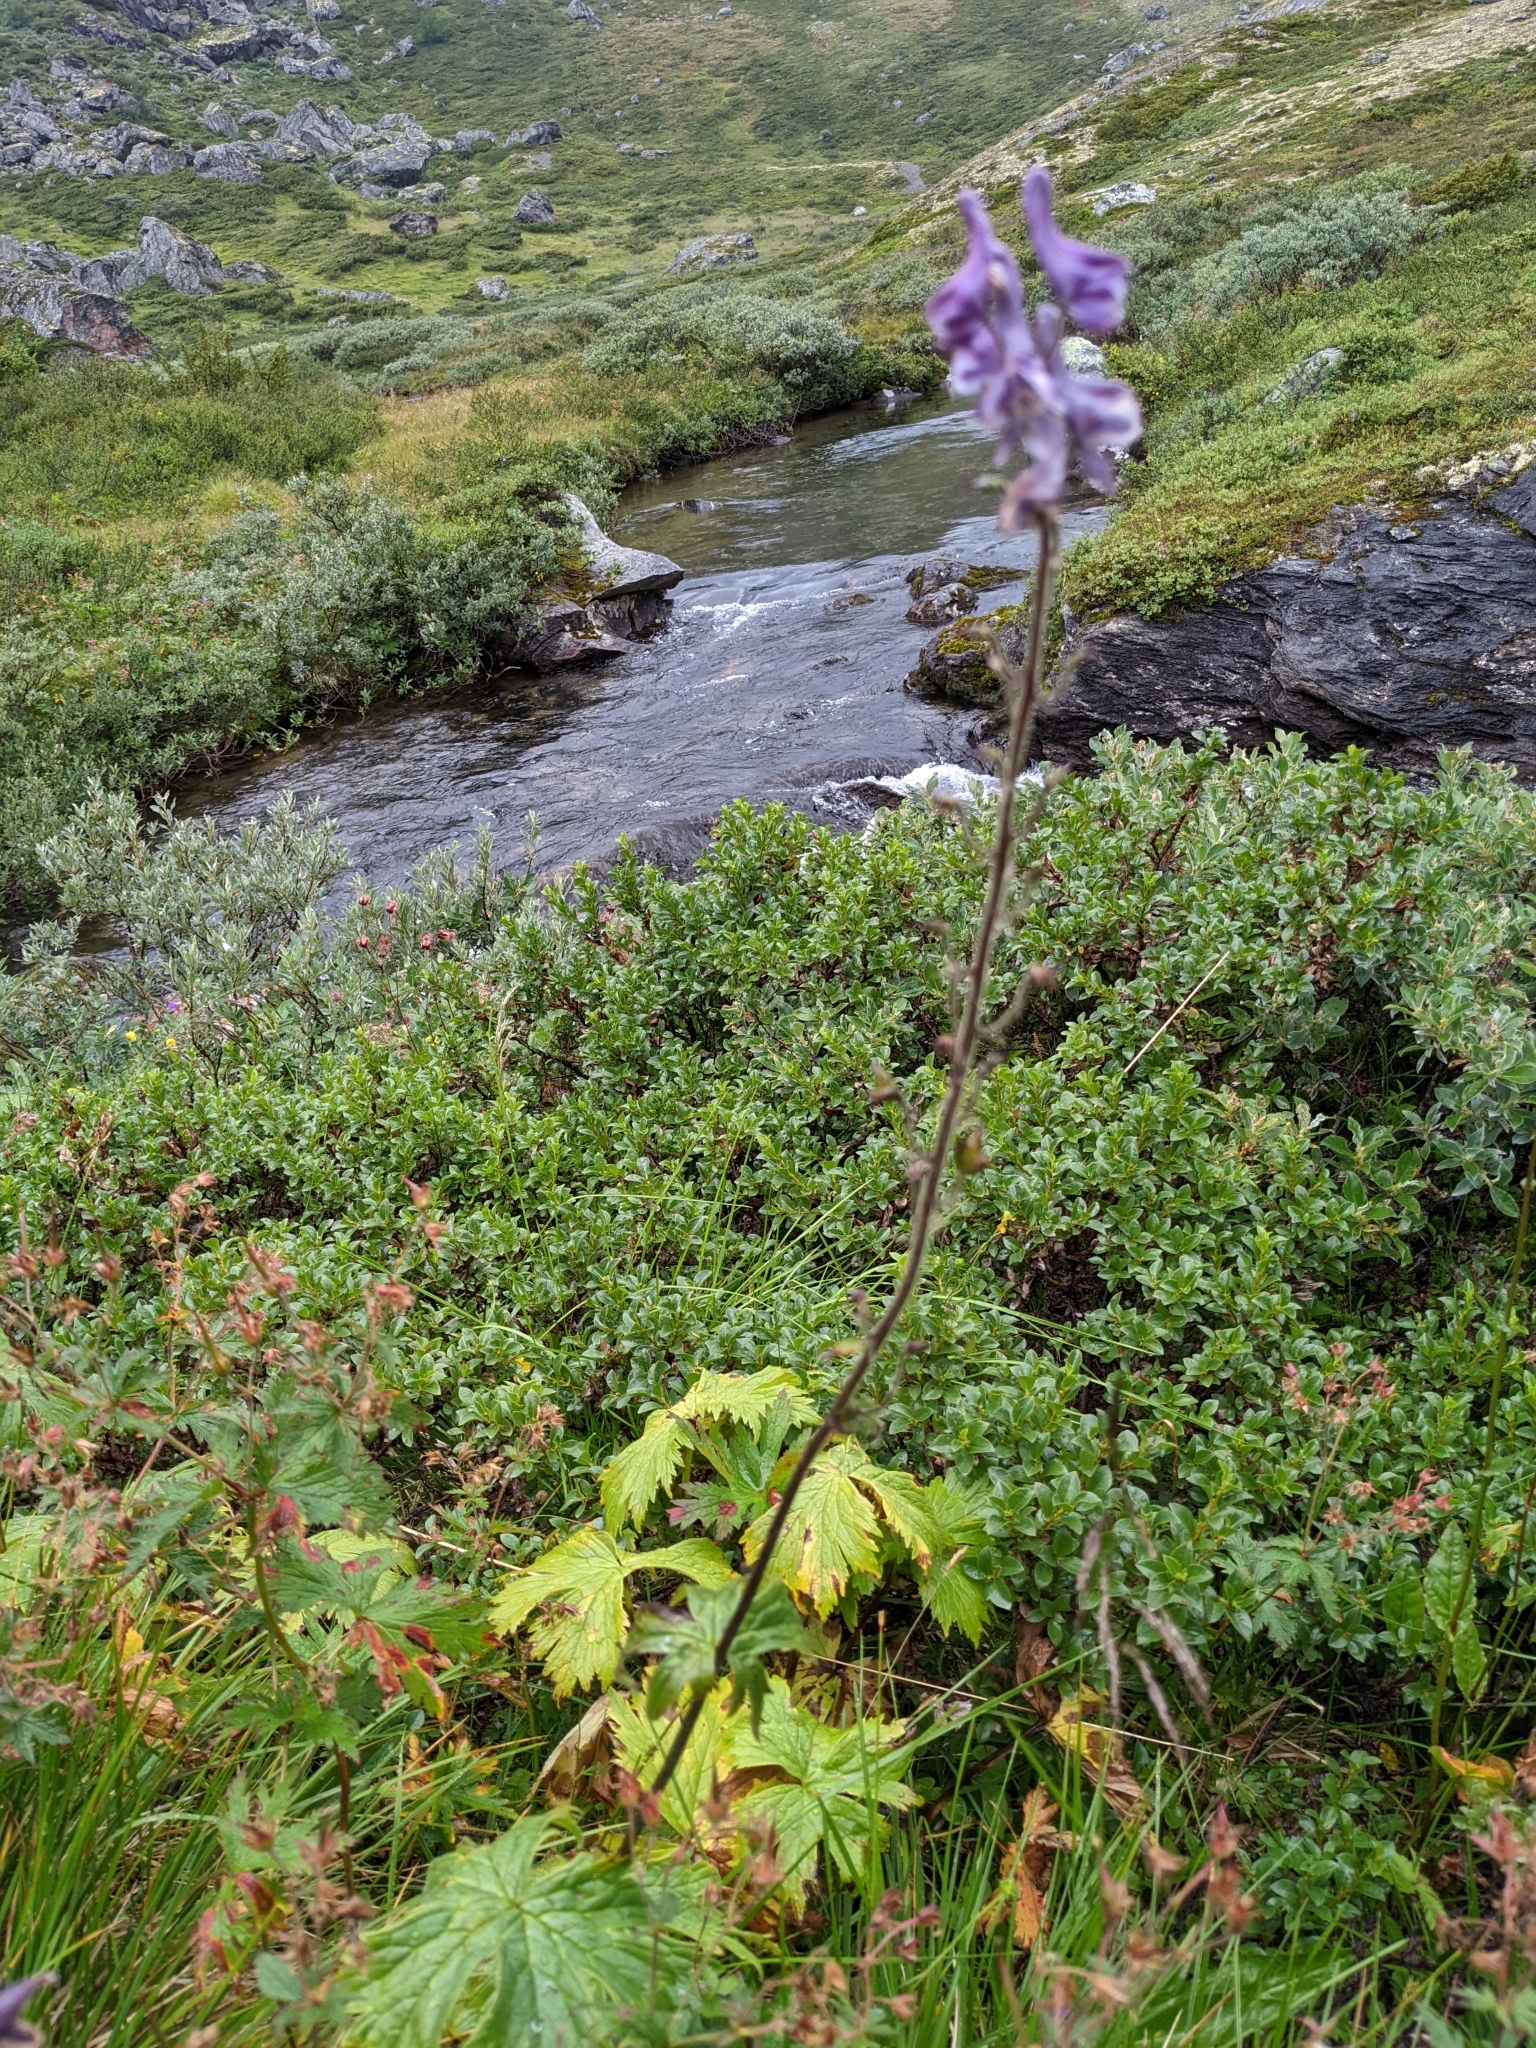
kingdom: Plantae
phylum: Tracheophyta
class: Magnoliopsida
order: Ranunculales
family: Ranunculaceae
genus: Aconitum
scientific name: Aconitum septentrionale
